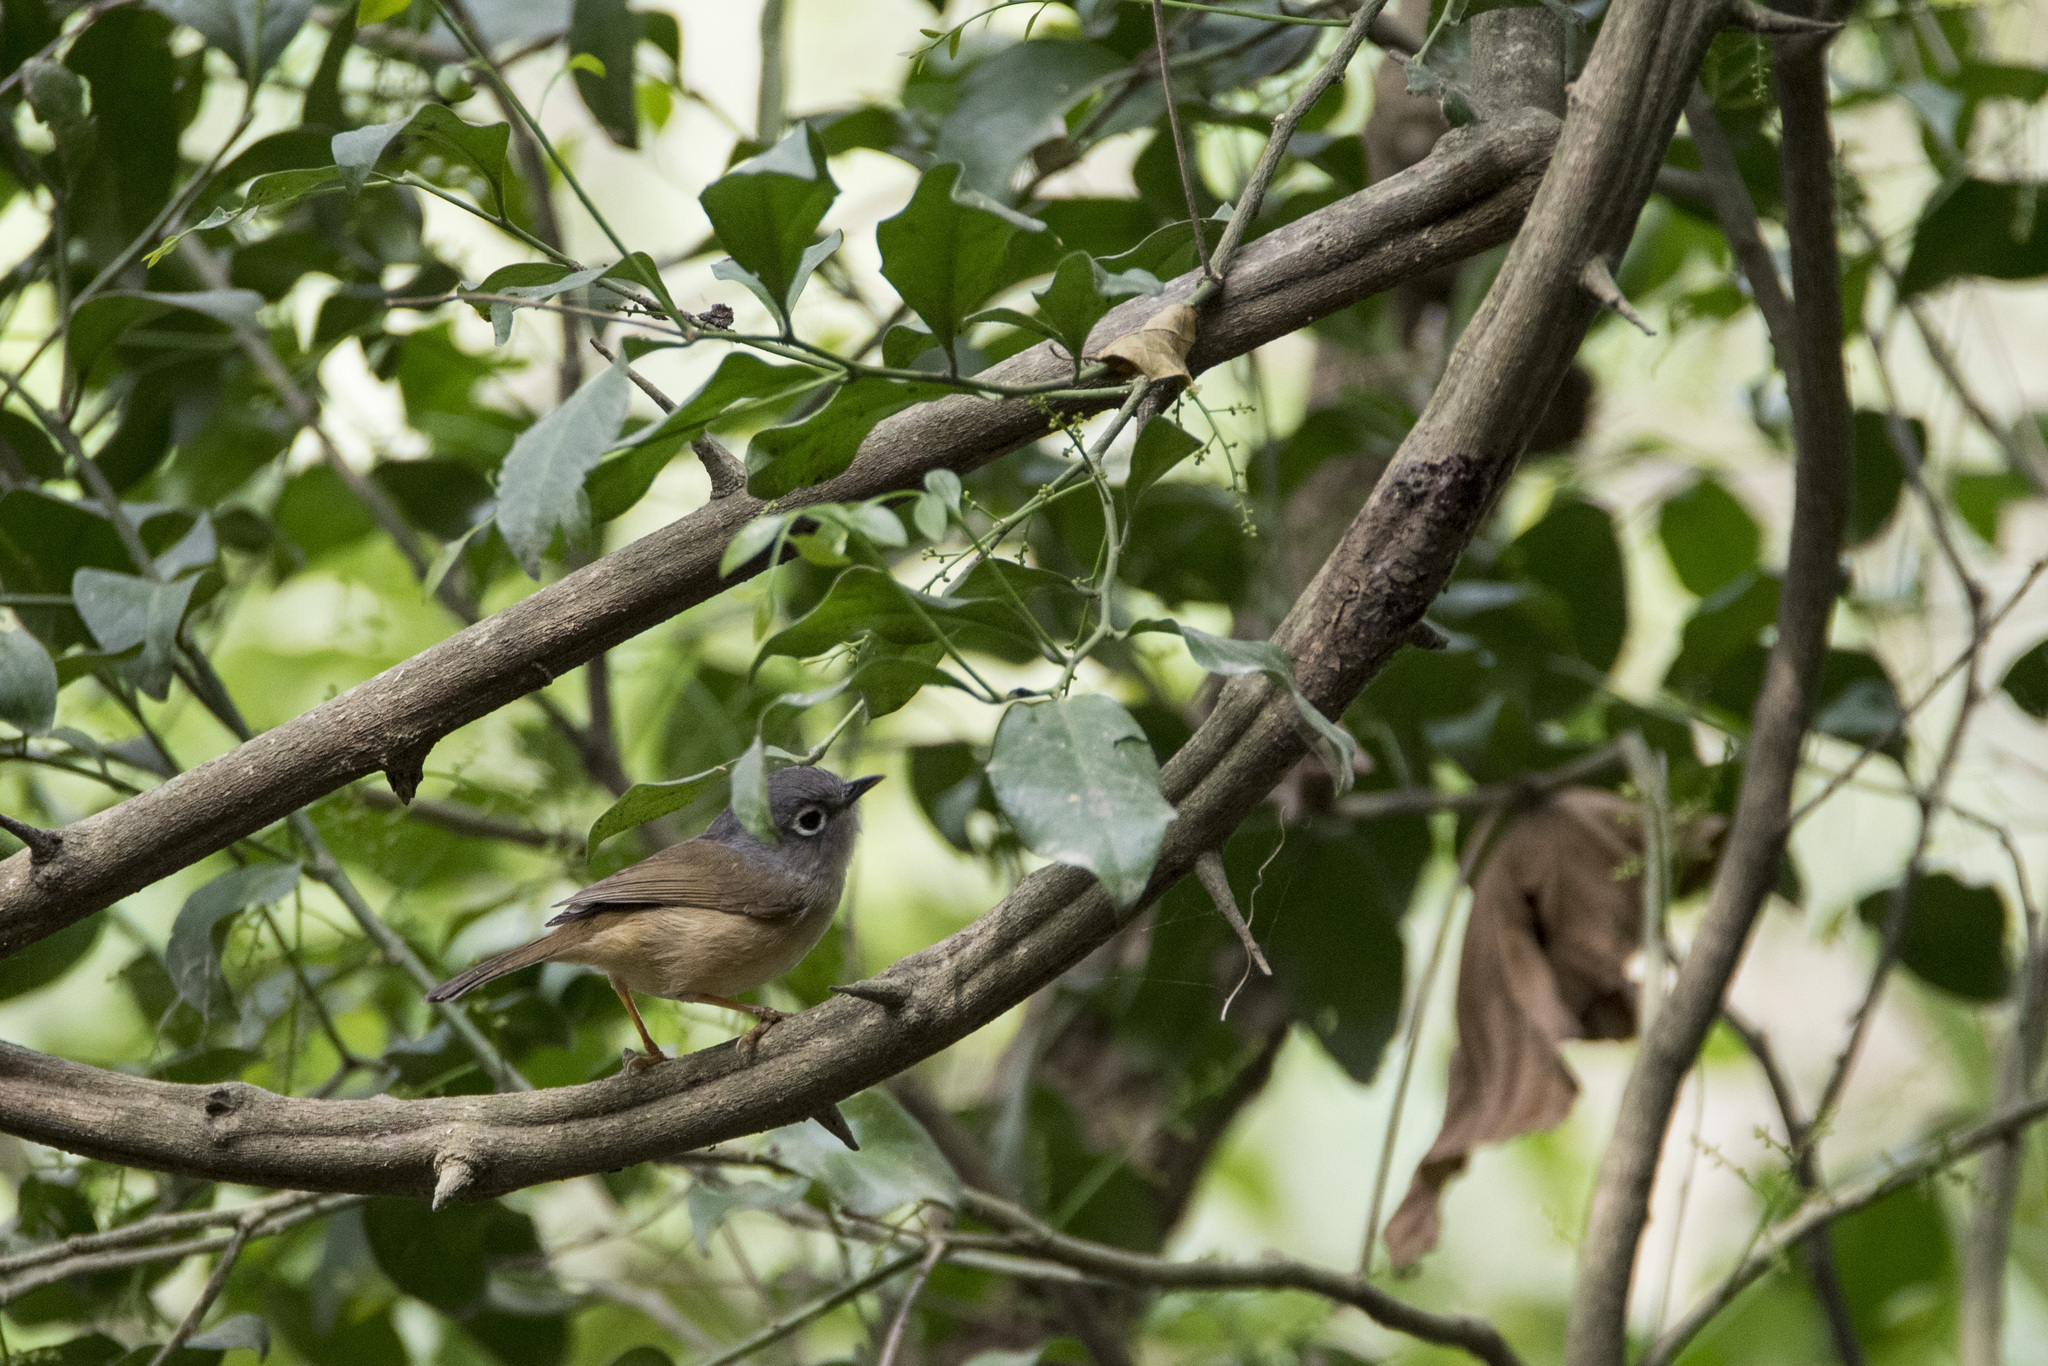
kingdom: Animalia
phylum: Chordata
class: Aves
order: Passeriformes
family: Pellorneidae
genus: Alcippe
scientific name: Alcippe morrisonia
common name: Grey-cheeked fulvetta
